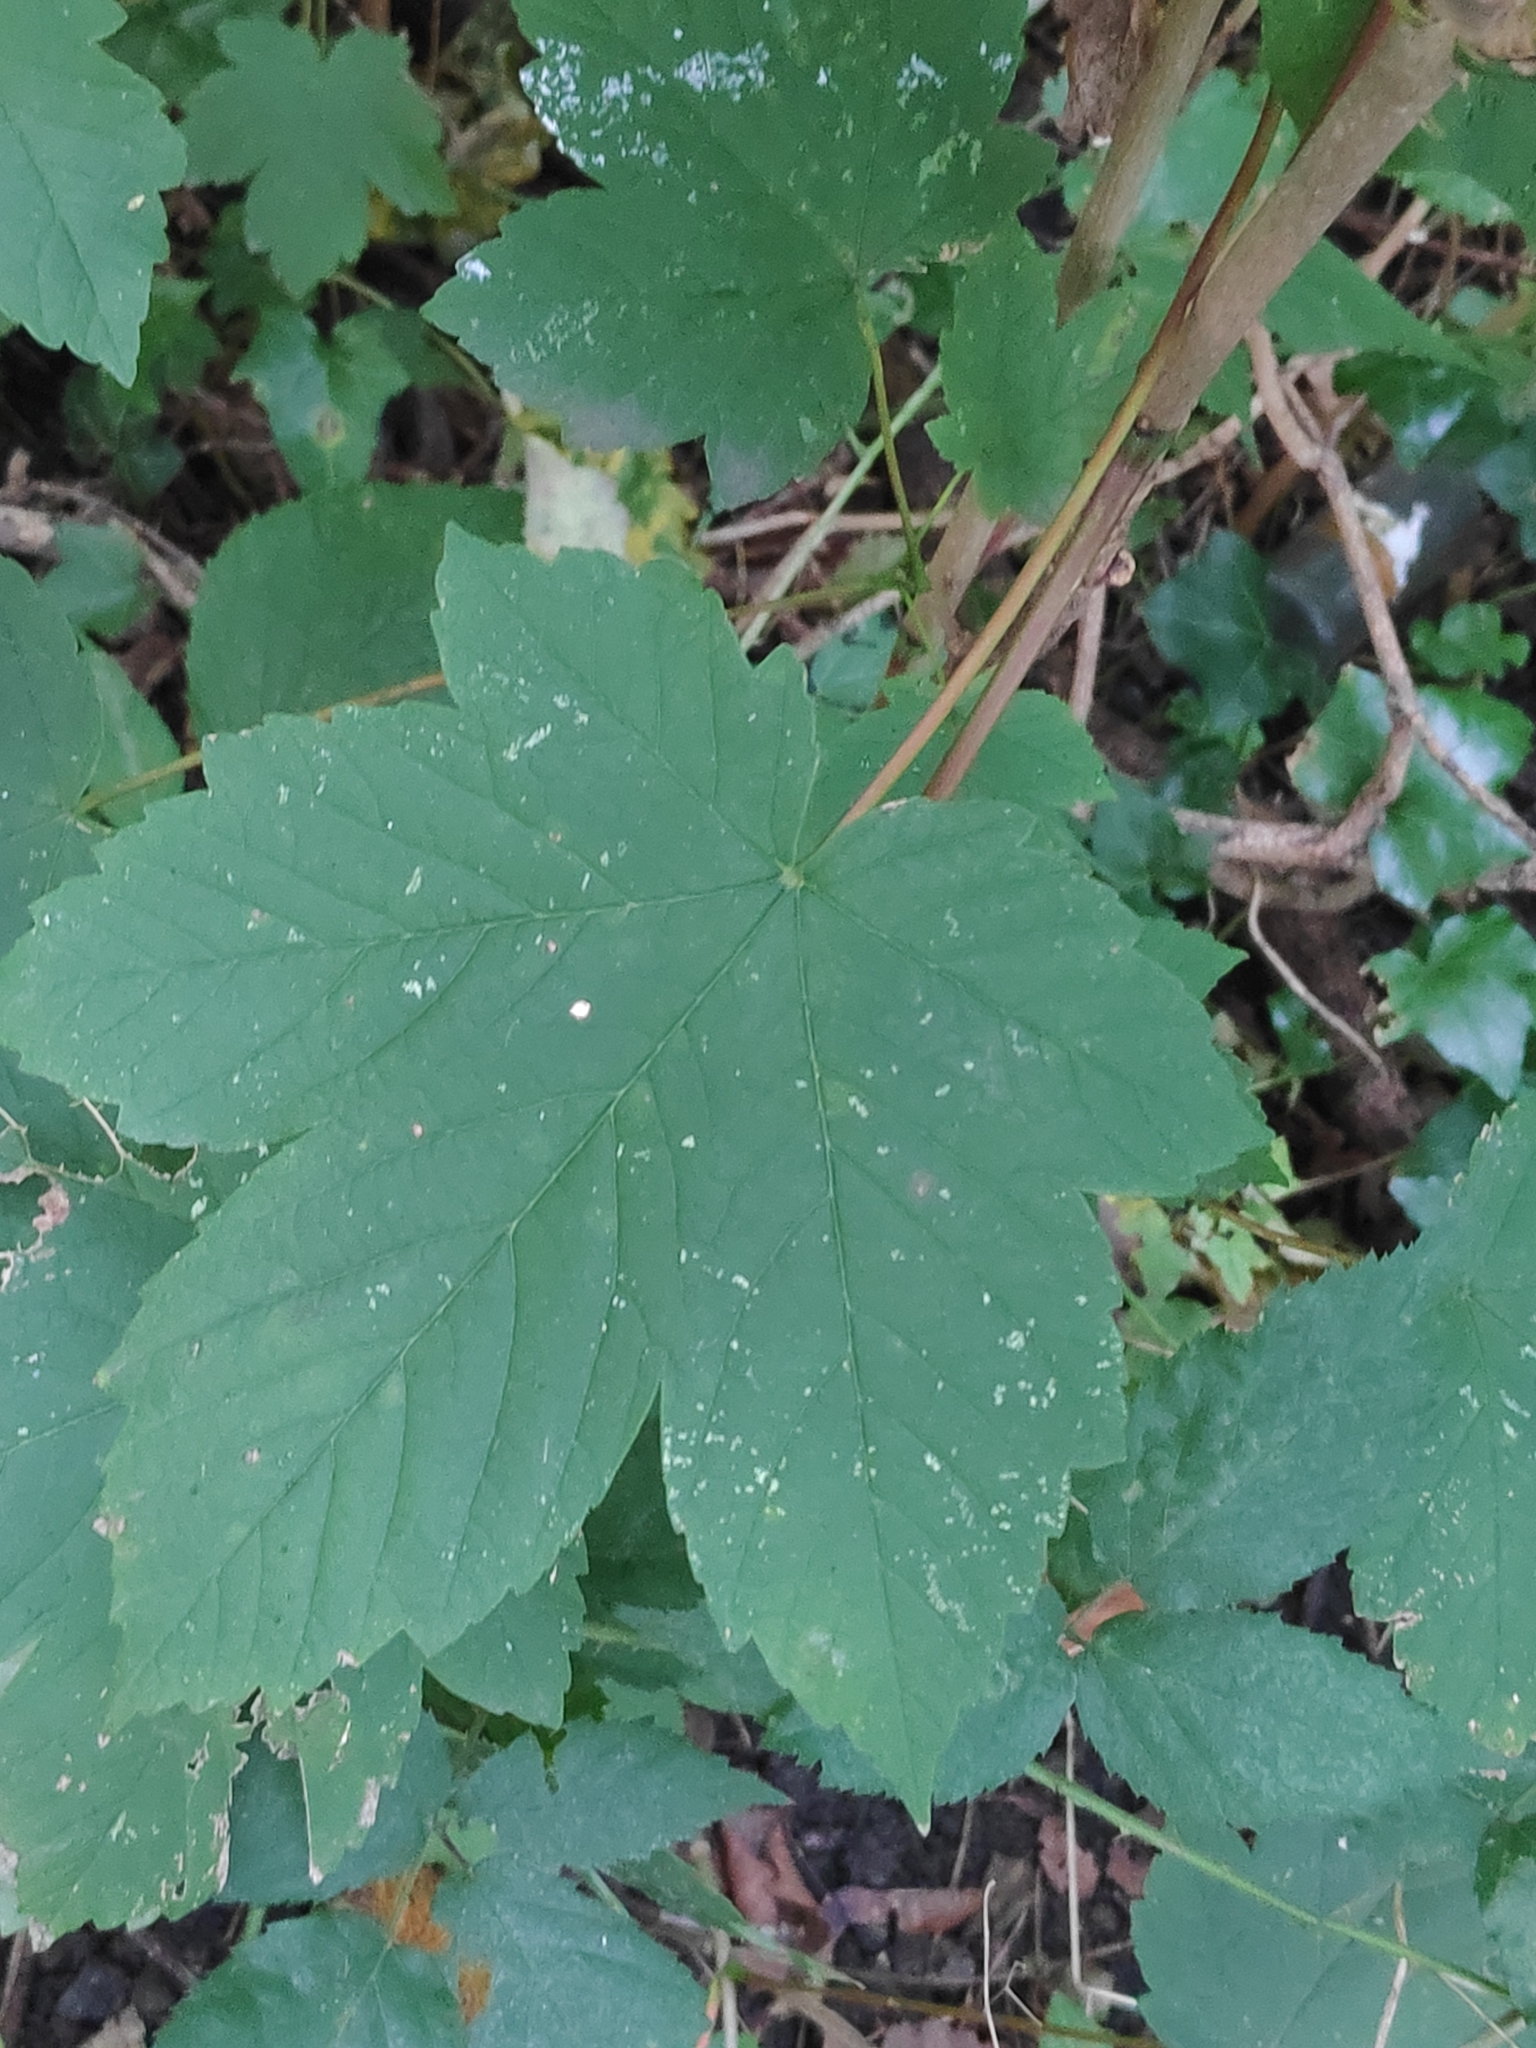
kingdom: Plantae
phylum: Tracheophyta
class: Magnoliopsida
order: Sapindales
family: Sapindaceae
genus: Acer
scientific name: Acer pseudoplatanus
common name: Sycamore
